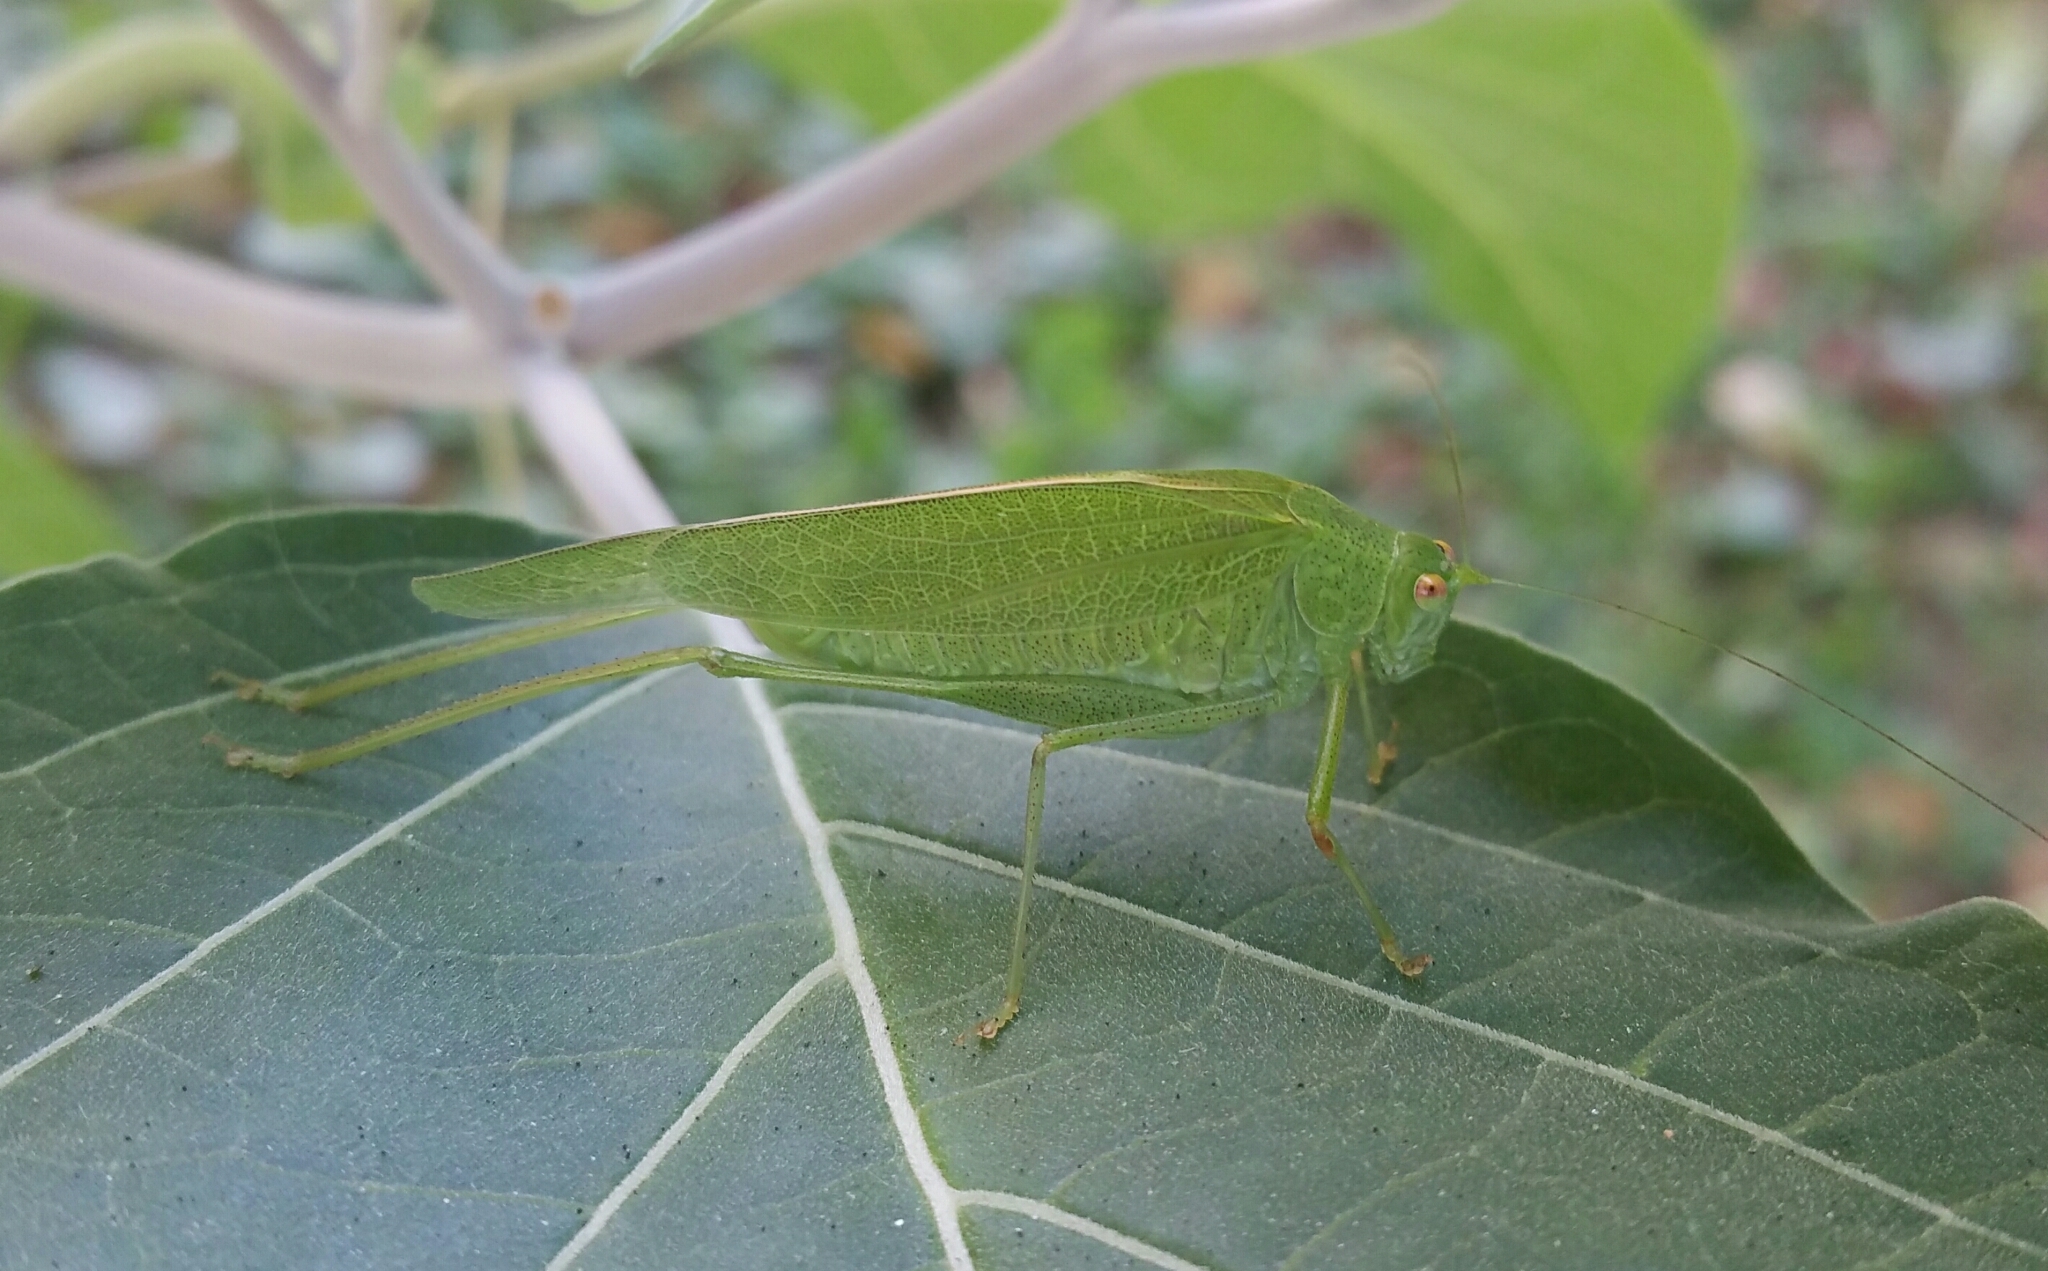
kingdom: Animalia
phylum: Arthropoda
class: Insecta
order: Orthoptera
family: Tettigoniidae
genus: Phaneroptera
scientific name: Phaneroptera nana
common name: Southern sickle bush-cricket
